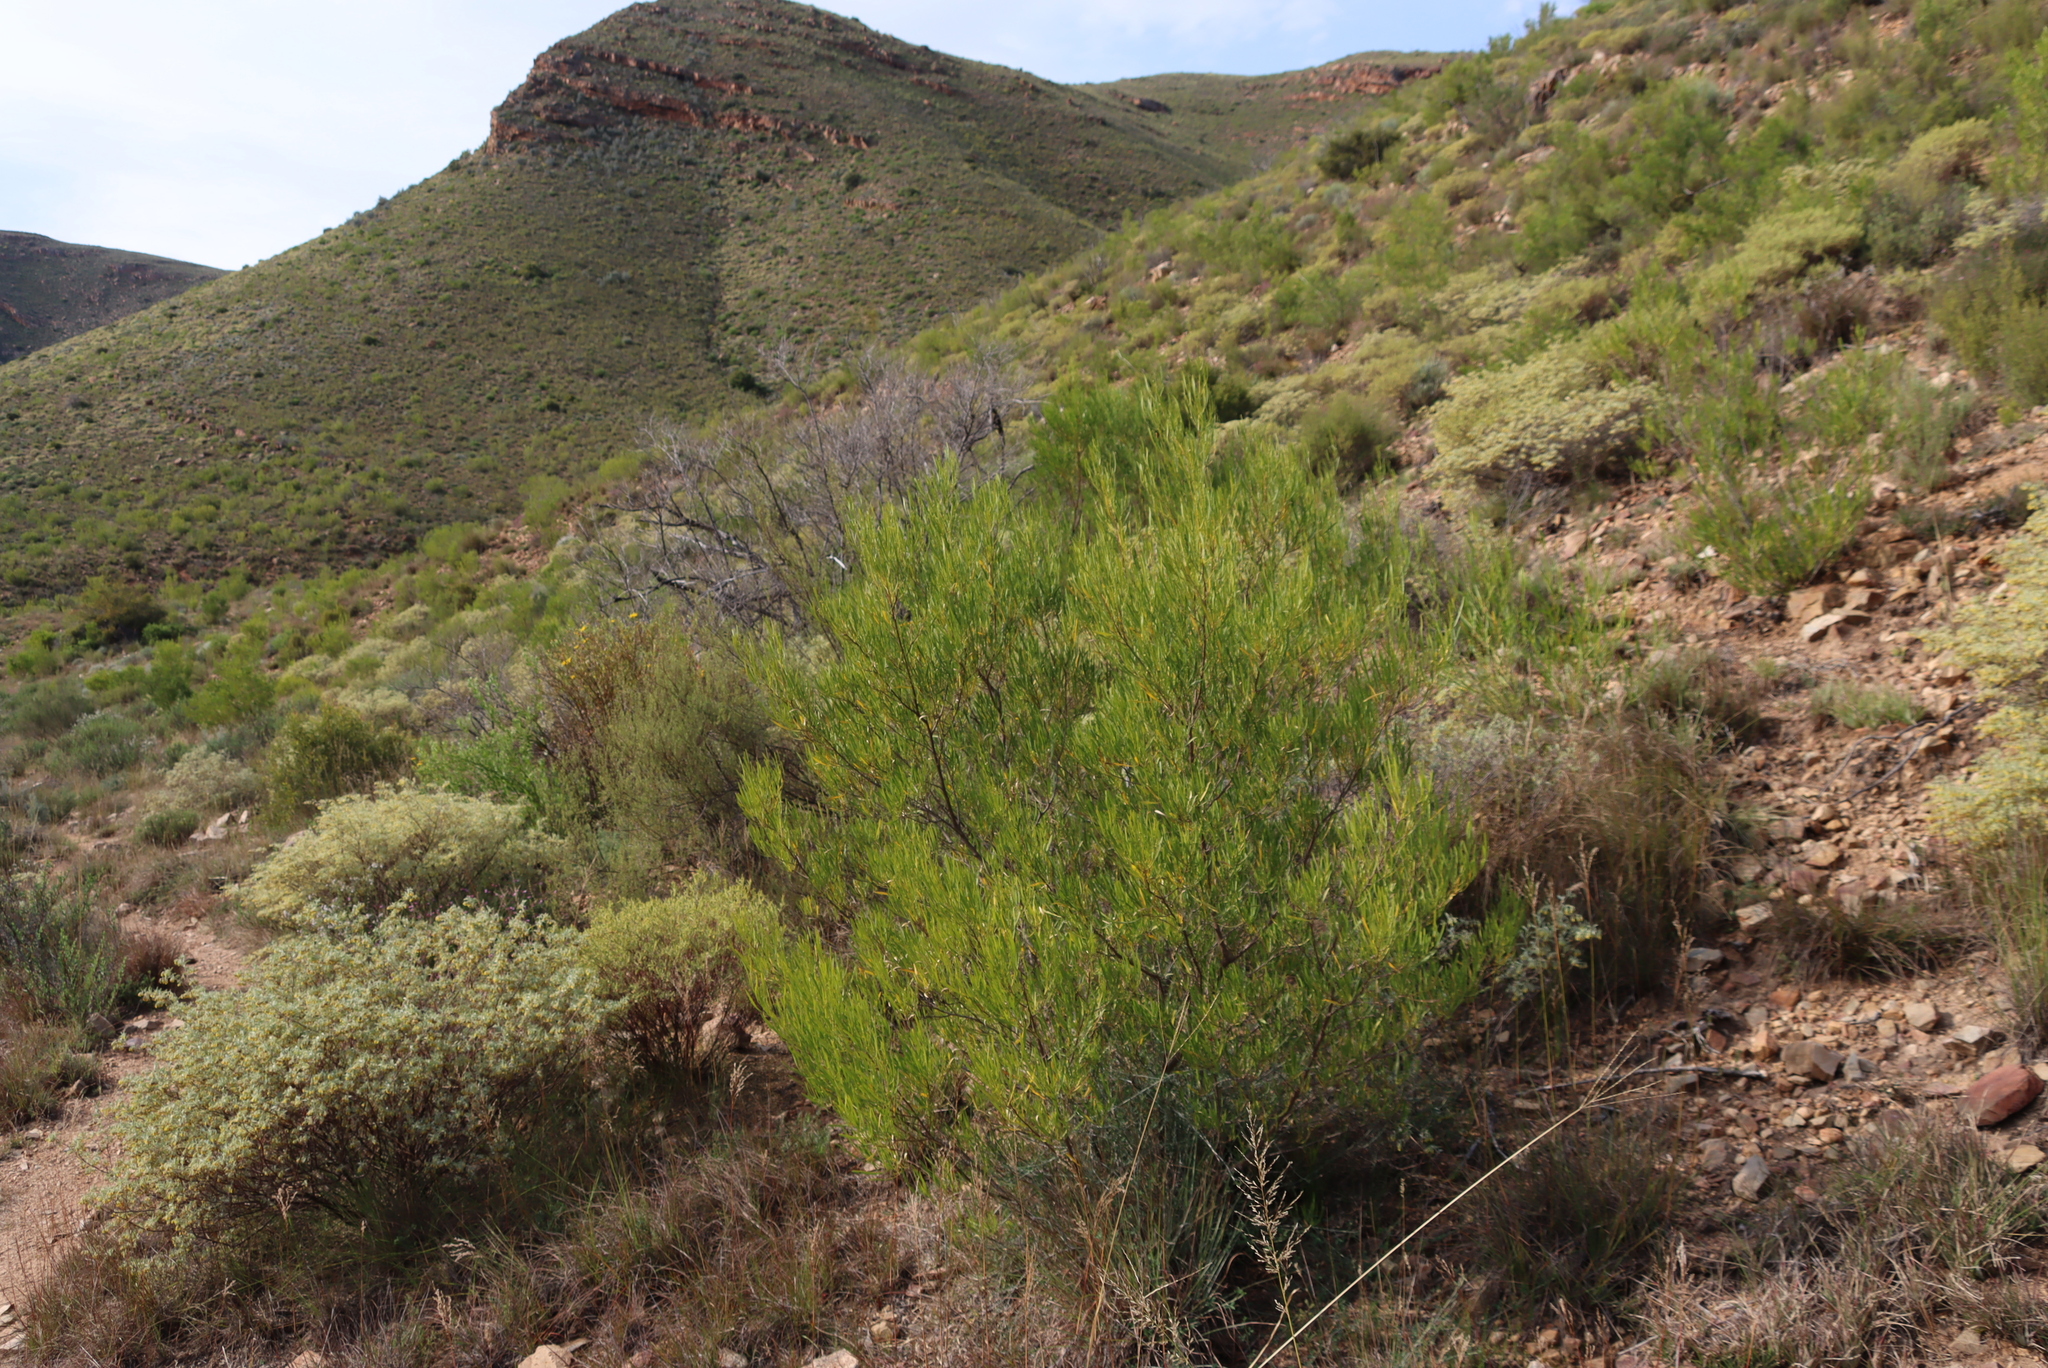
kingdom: Plantae
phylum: Tracheophyta
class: Magnoliopsida
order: Sapindales
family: Sapindaceae
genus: Dodonaea
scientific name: Dodonaea viscosa
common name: Hopbush
